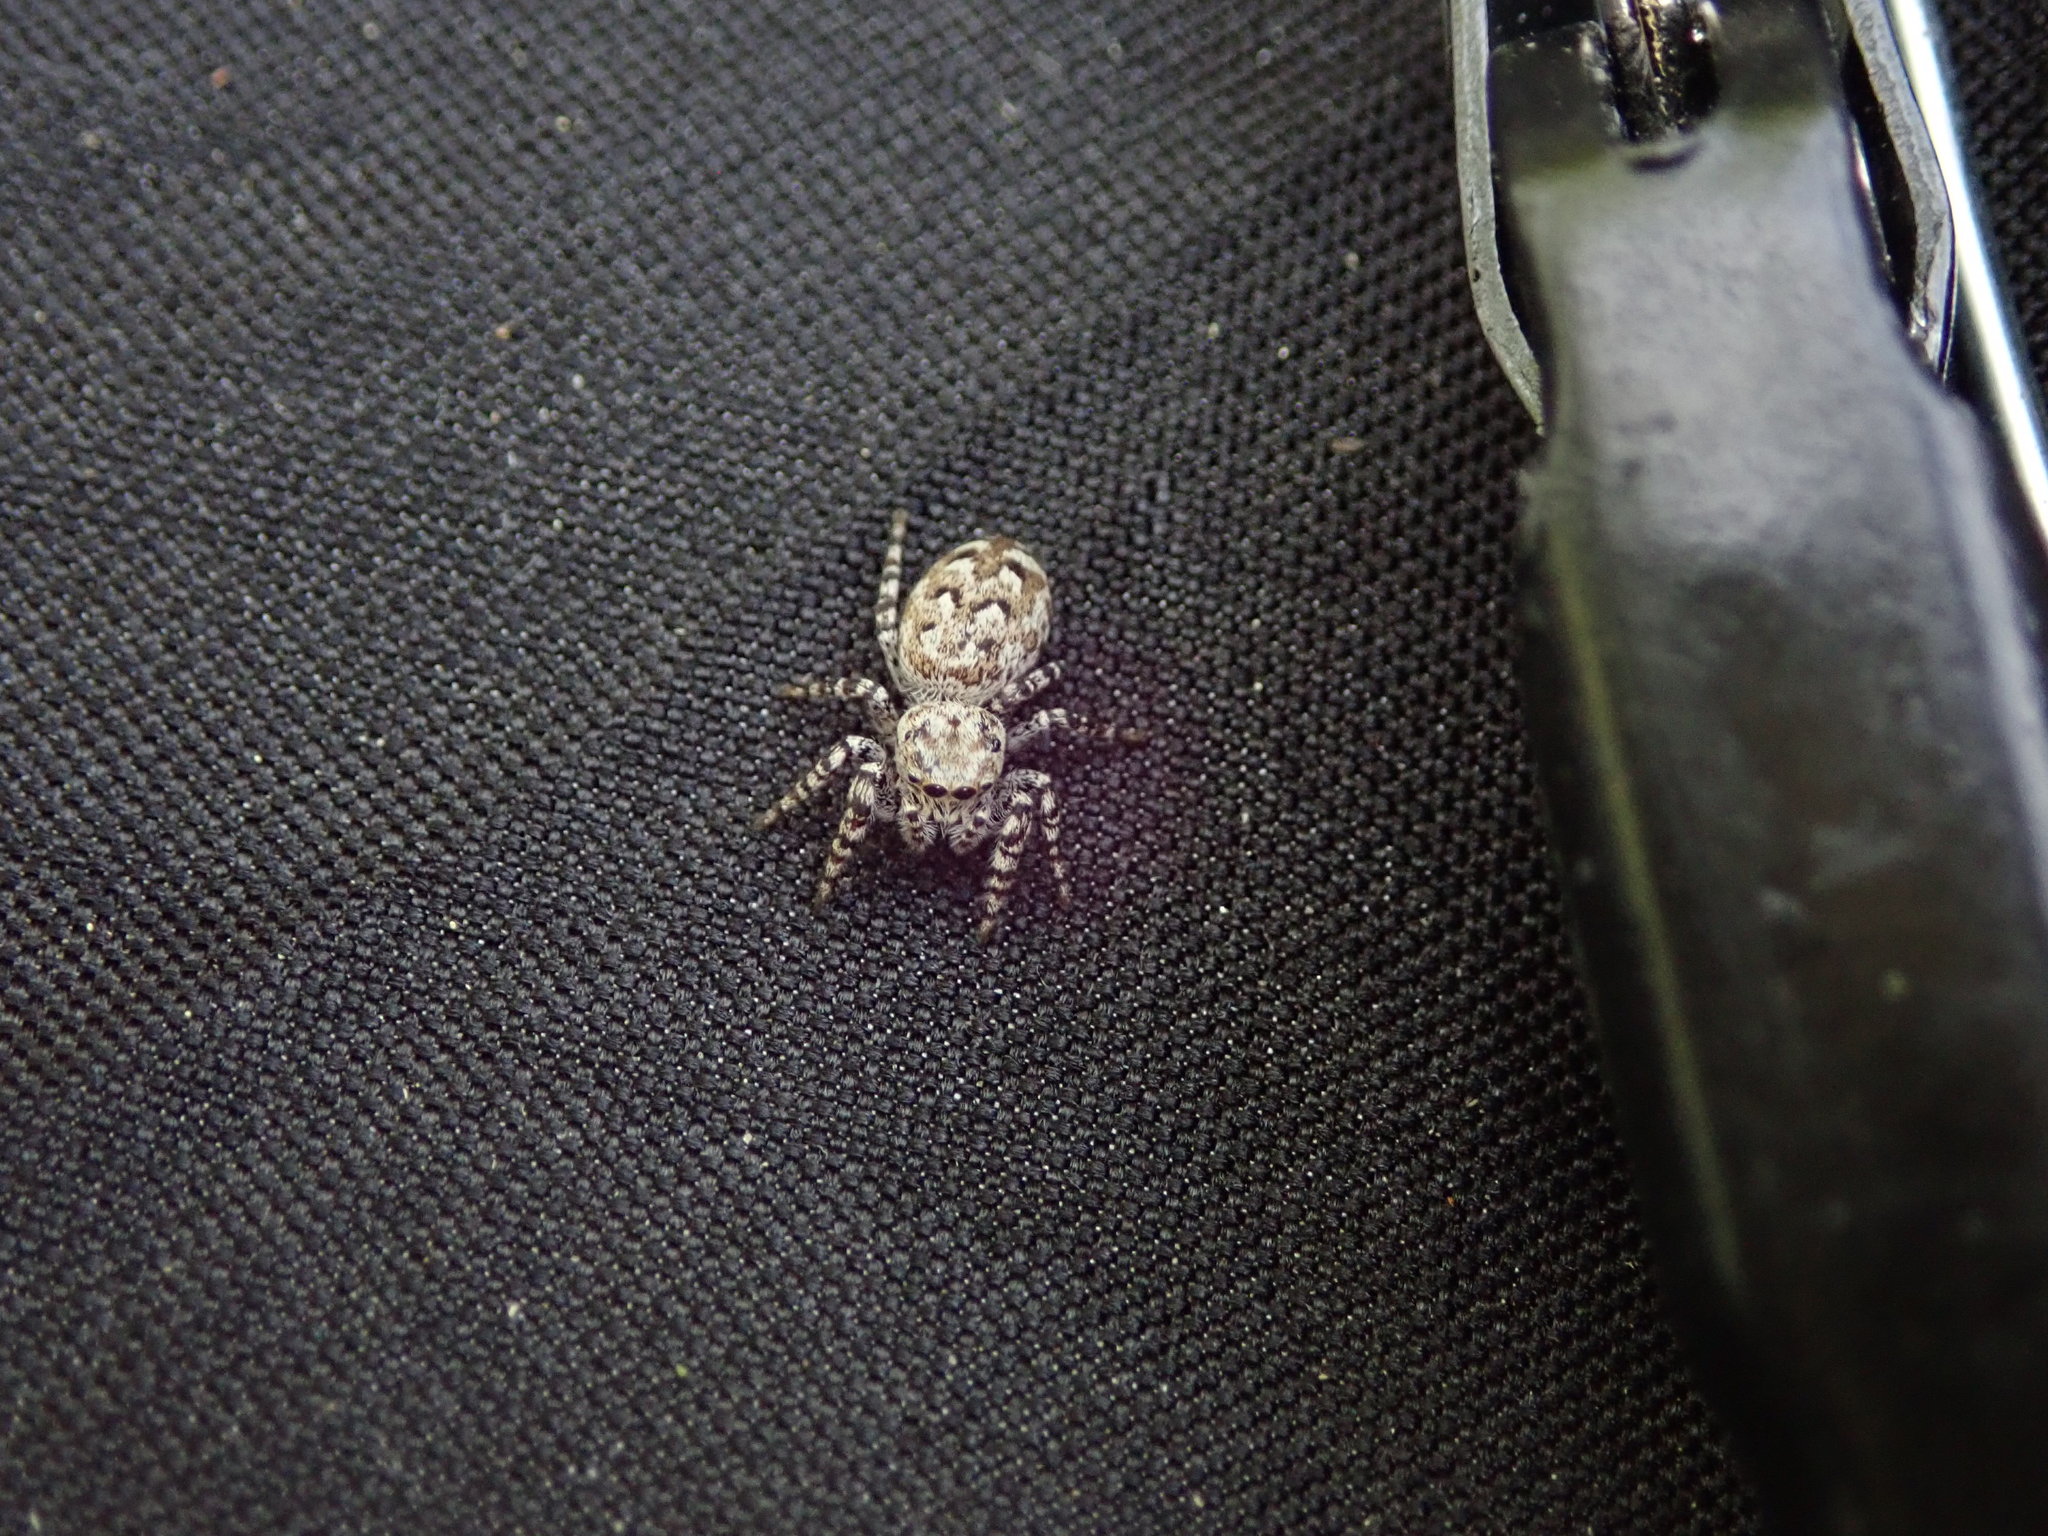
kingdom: Animalia
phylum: Arthropoda
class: Arachnida
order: Araneae
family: Salticidae
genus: Pelegrina
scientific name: Pelegrina galathea
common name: Jumping spiders
